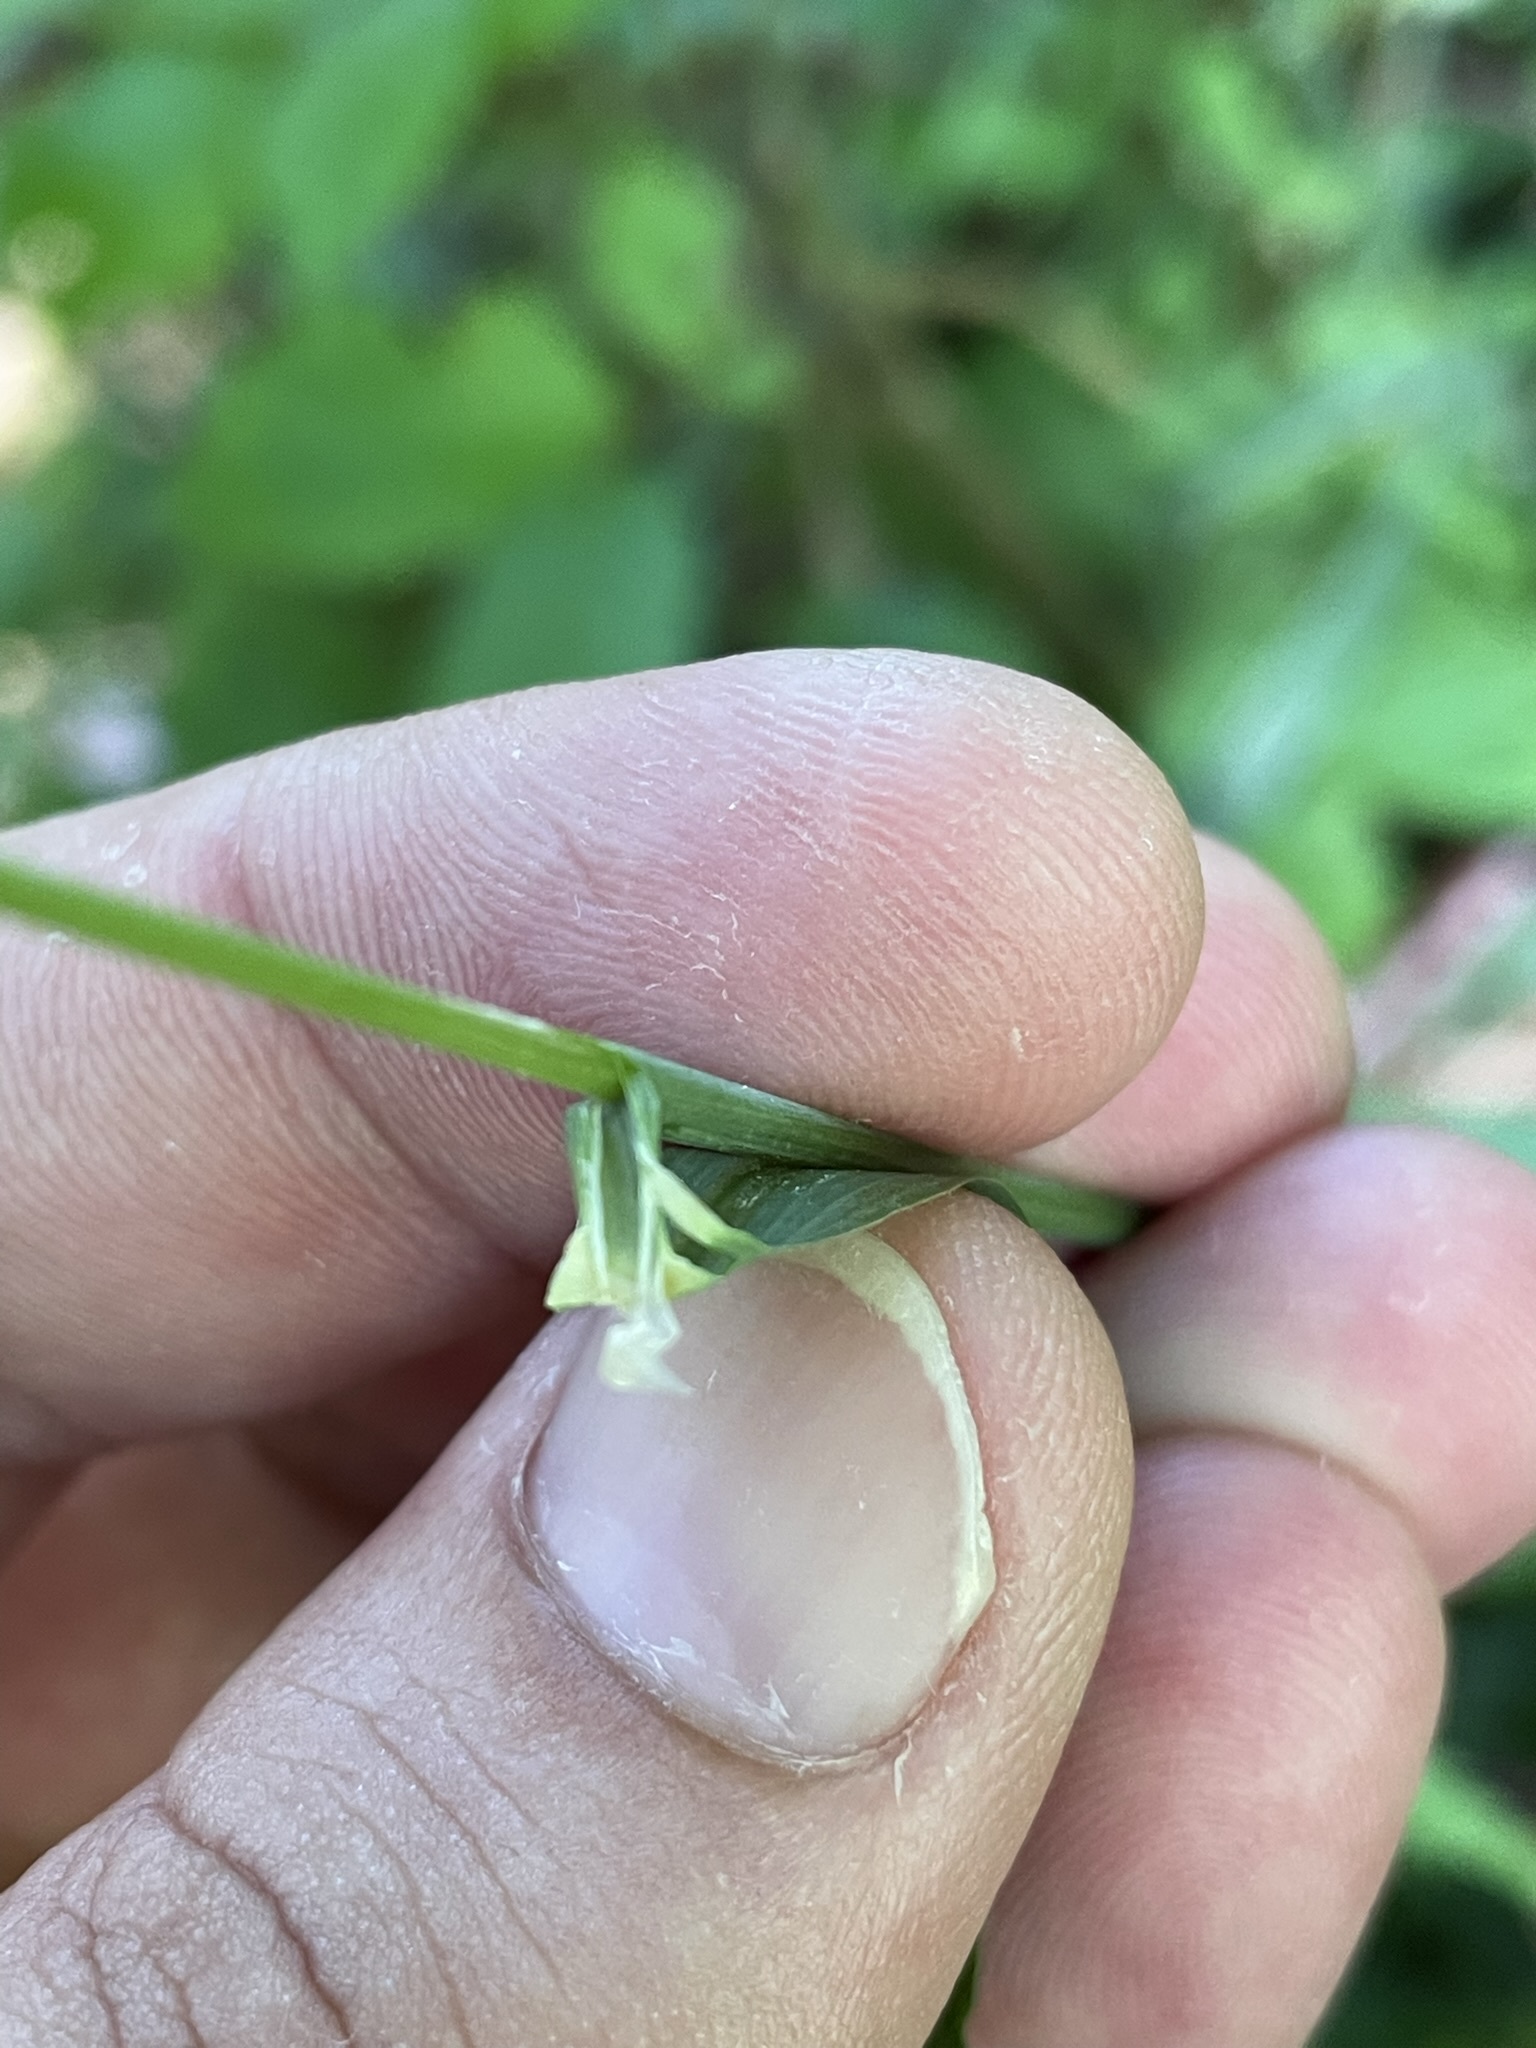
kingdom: Plantae
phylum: Tracheophyta
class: Liliopsida
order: Poales
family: Poaceae
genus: Milium
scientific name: Milium effusum
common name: Wood millet
